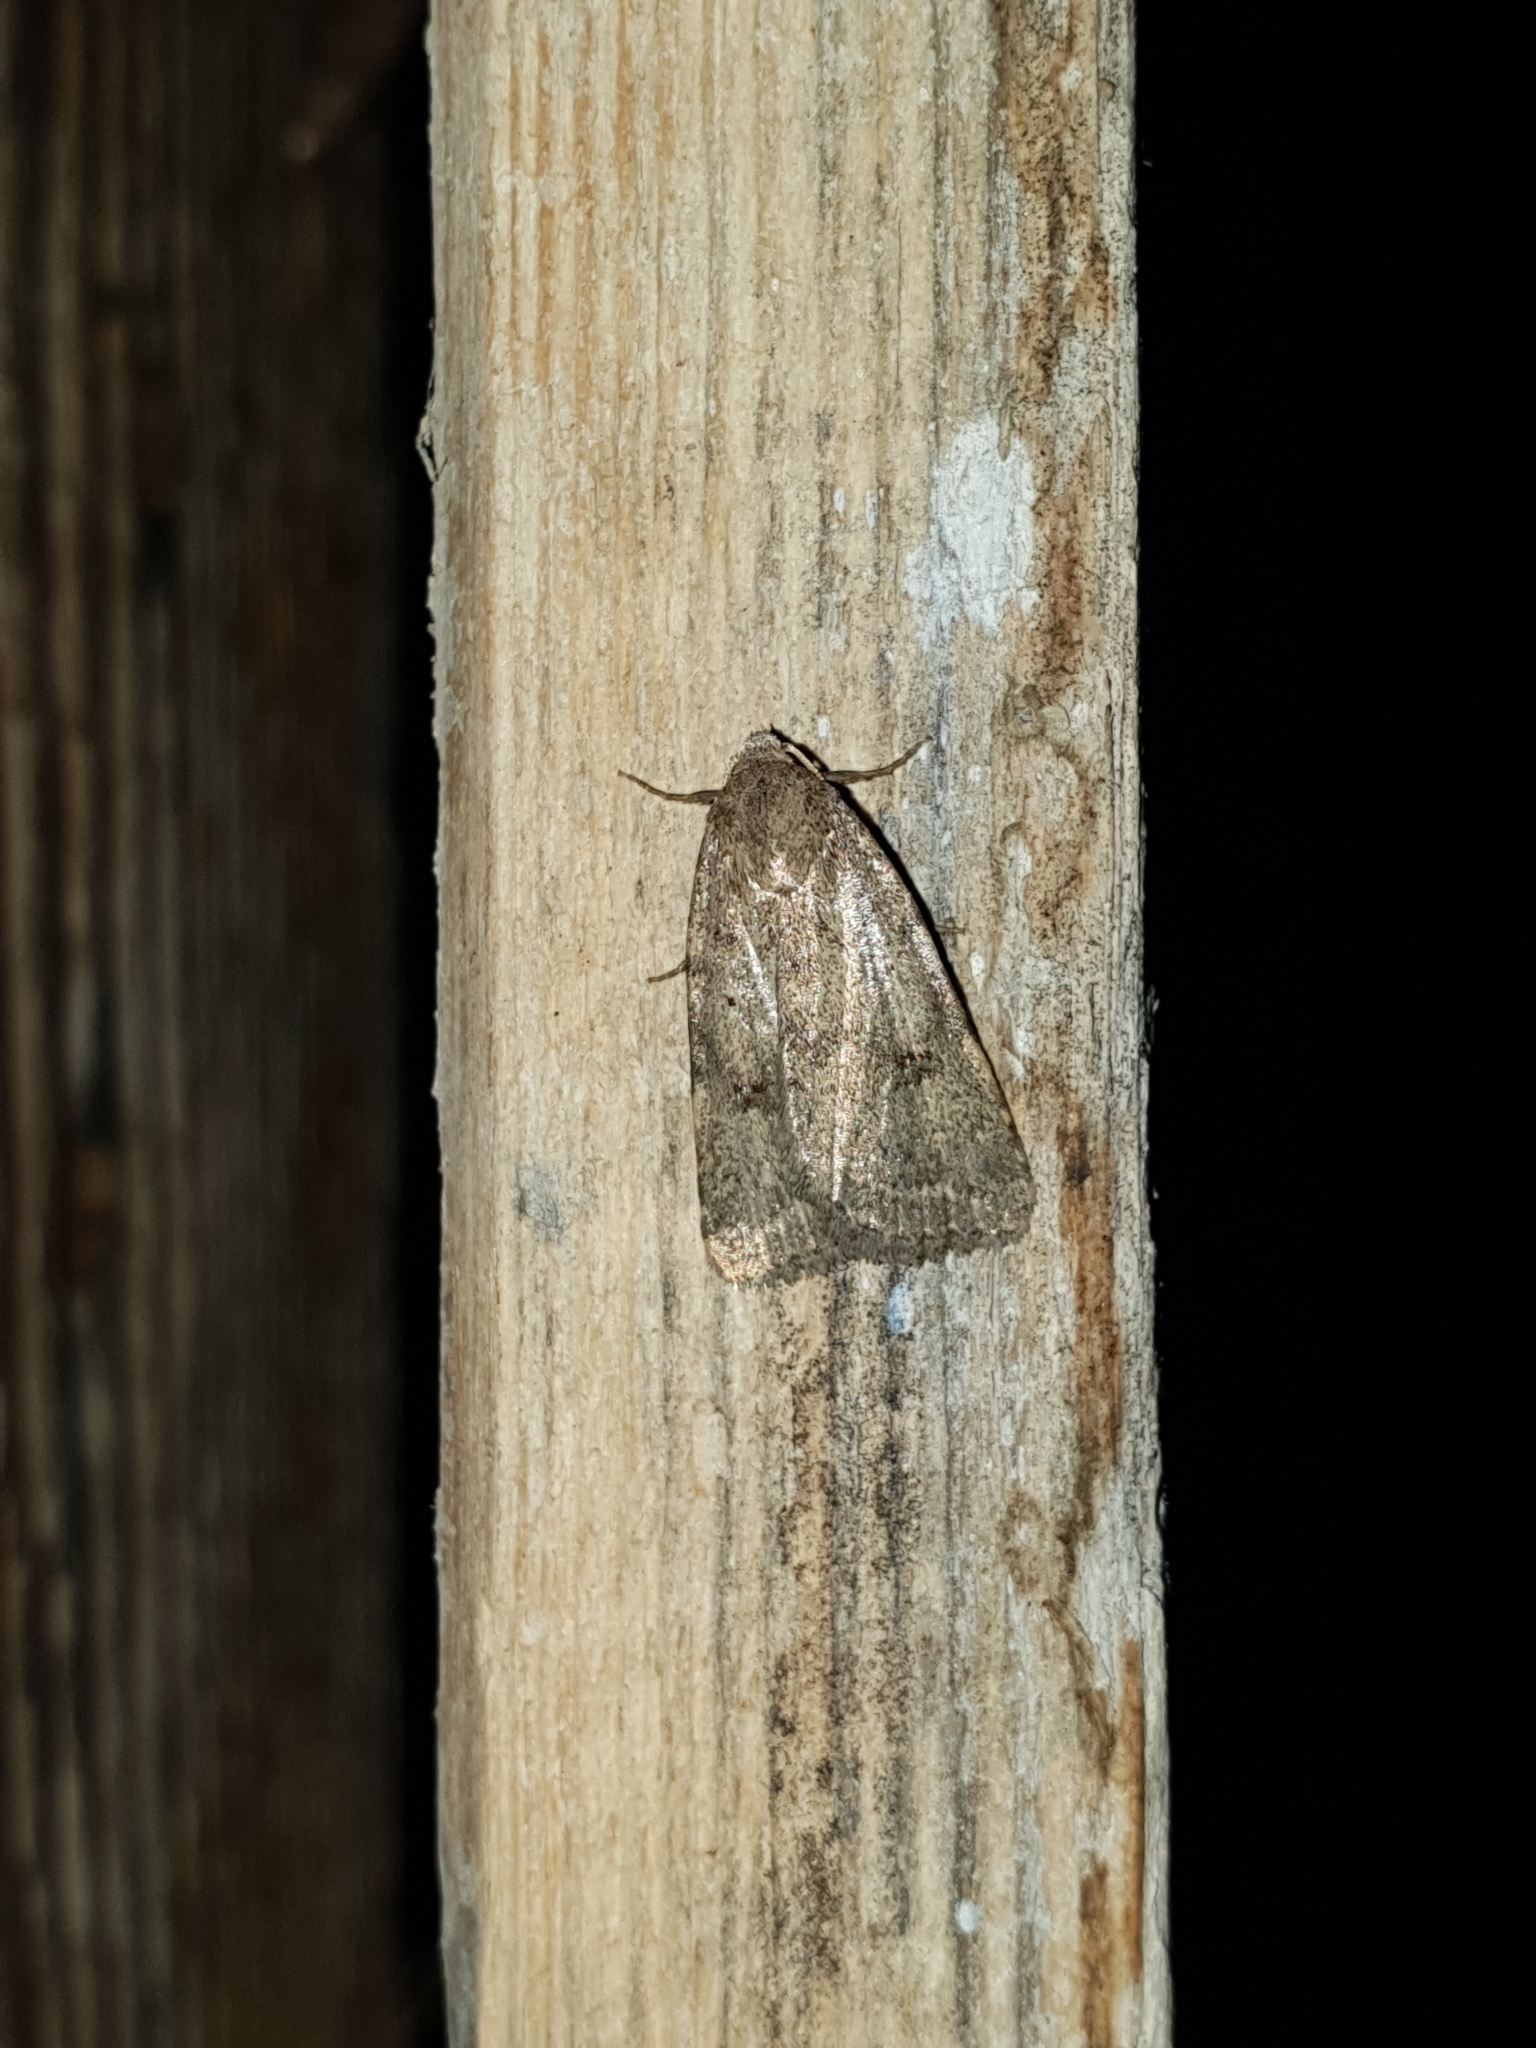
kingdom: Animalia
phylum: Arthropoda
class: Insecta
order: Lepidoptera
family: Noctuidae
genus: Athetis
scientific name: Athetis gluteosa
